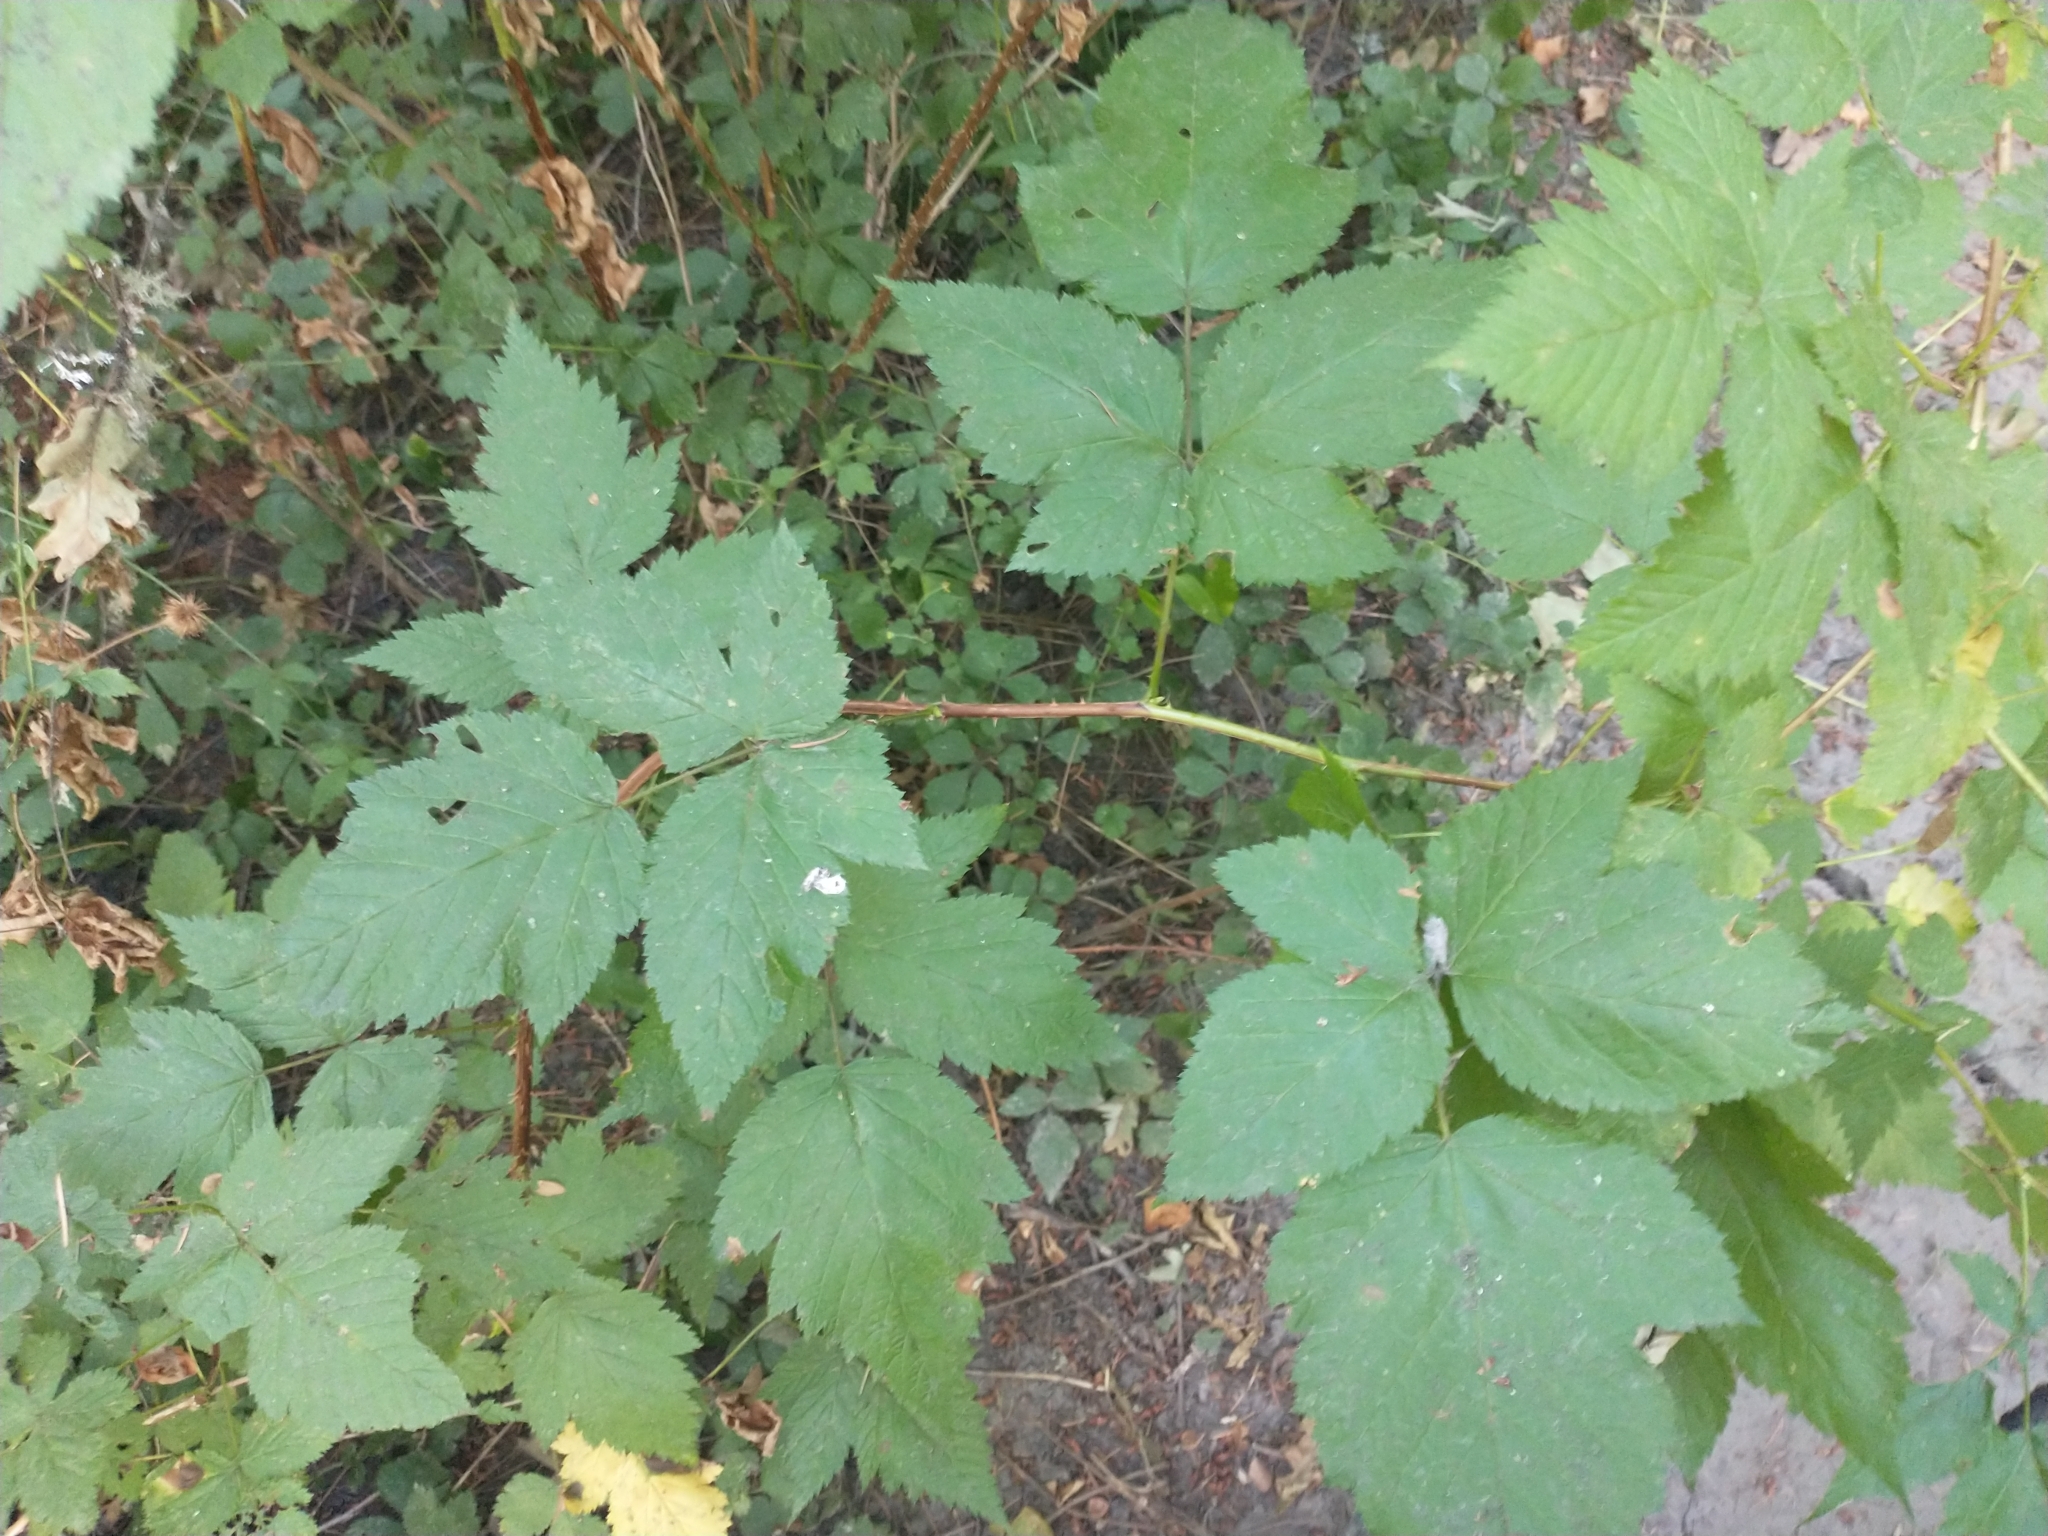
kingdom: Plantae
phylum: Tracheophyta
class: Magnoliopsida
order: Rosales
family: Rosaceae
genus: Rubus
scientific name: Rubus spectabilis
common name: Salmonberry
